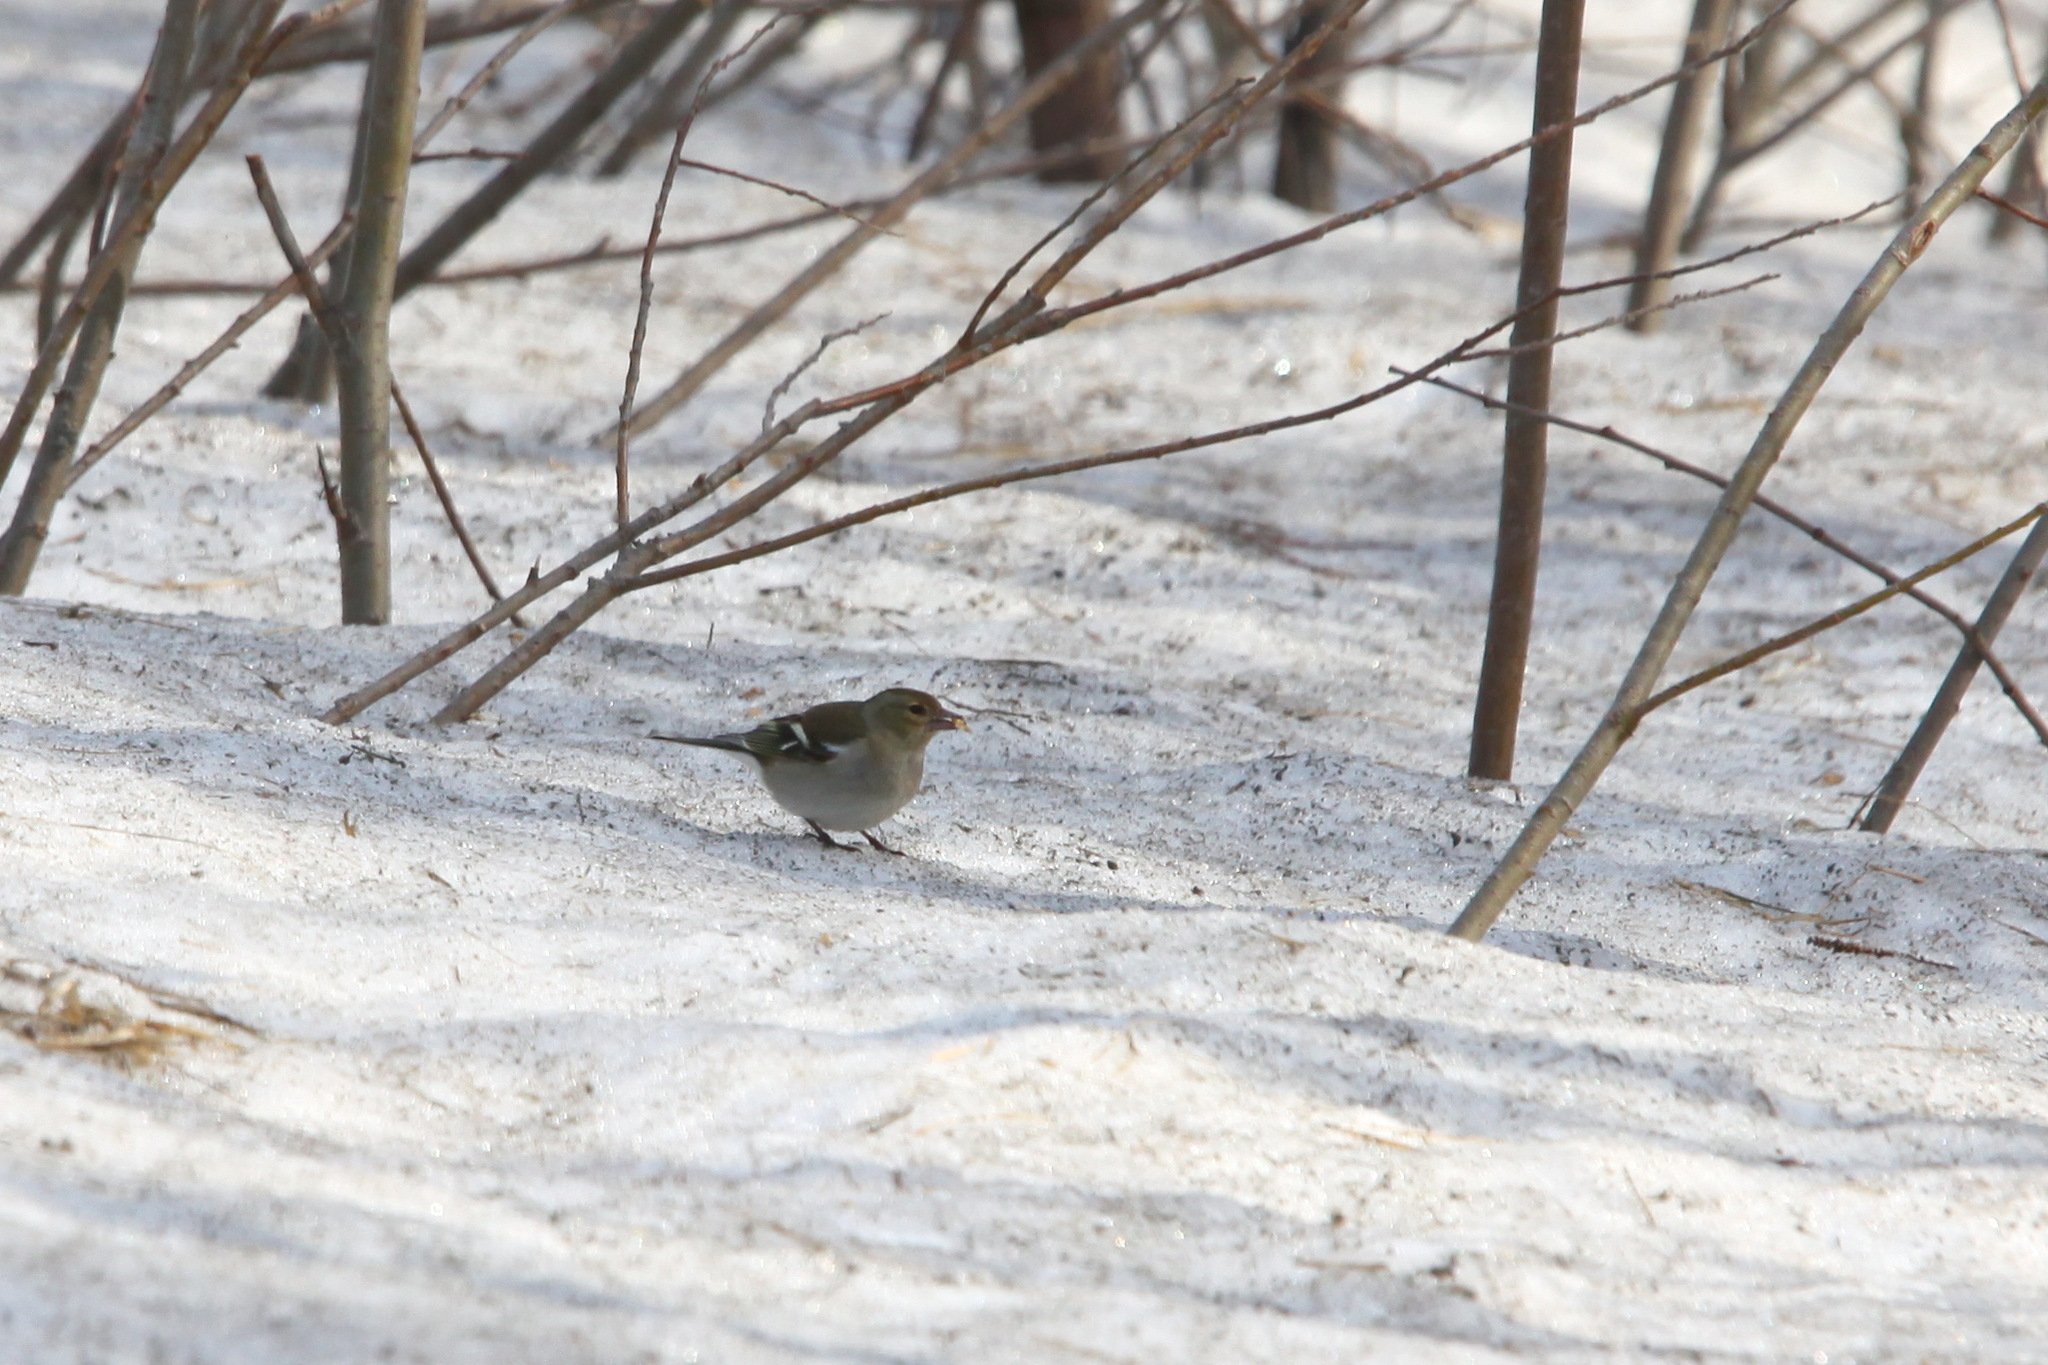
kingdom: Animalia
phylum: Chordata
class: Aves
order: Passeriformes
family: Fringillidae
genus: Fringilla
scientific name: Fringilla coelebs
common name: Common chaffinch
